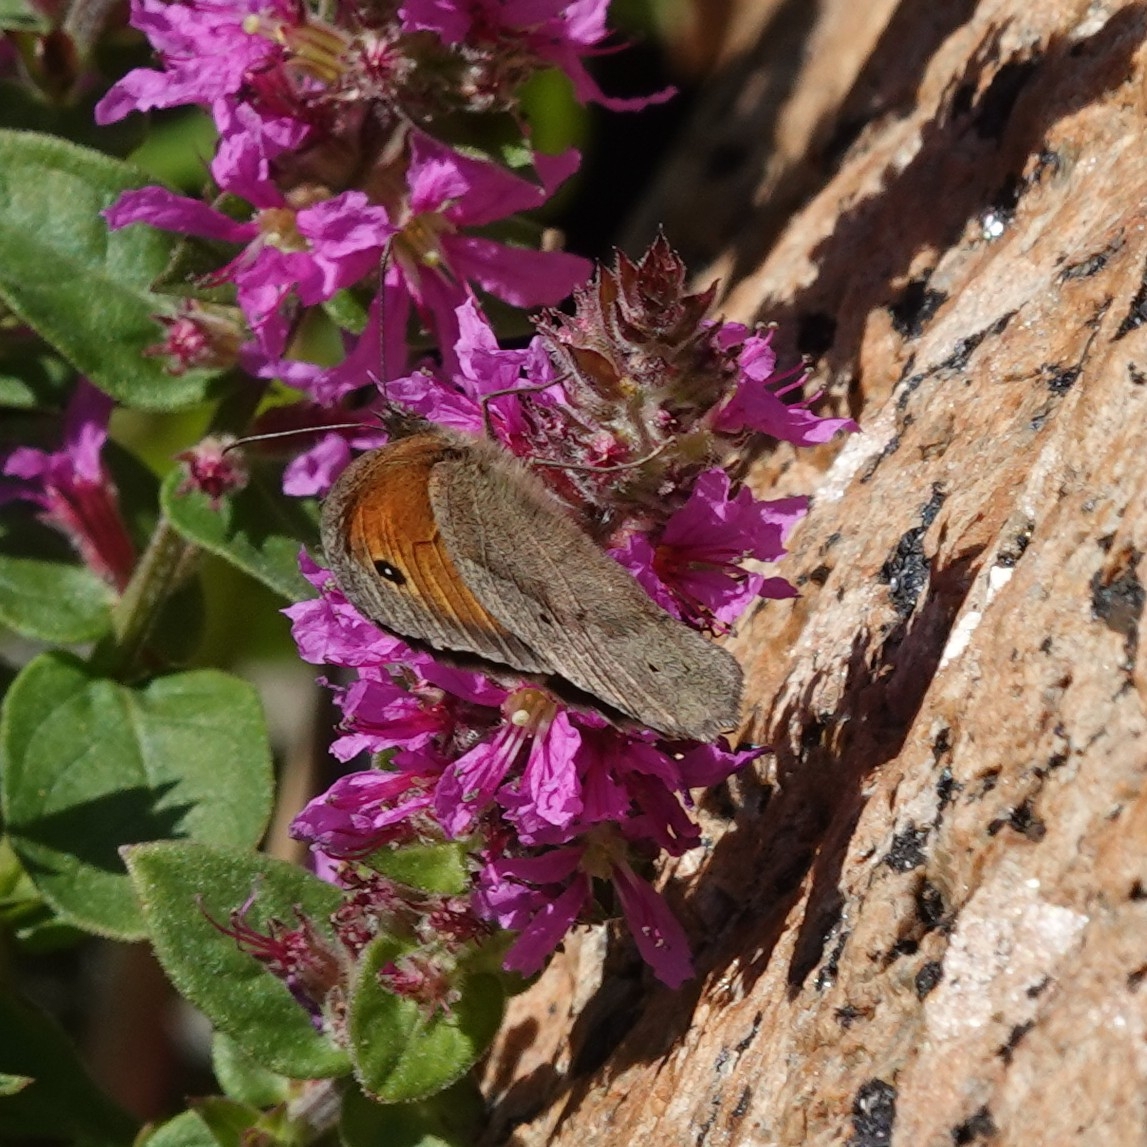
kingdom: Animalia
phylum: Arthropoda
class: Insecta
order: Lepidoptera
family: Nymphalidae
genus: Maniola
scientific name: Maniola jurtina
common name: Meadow brown
